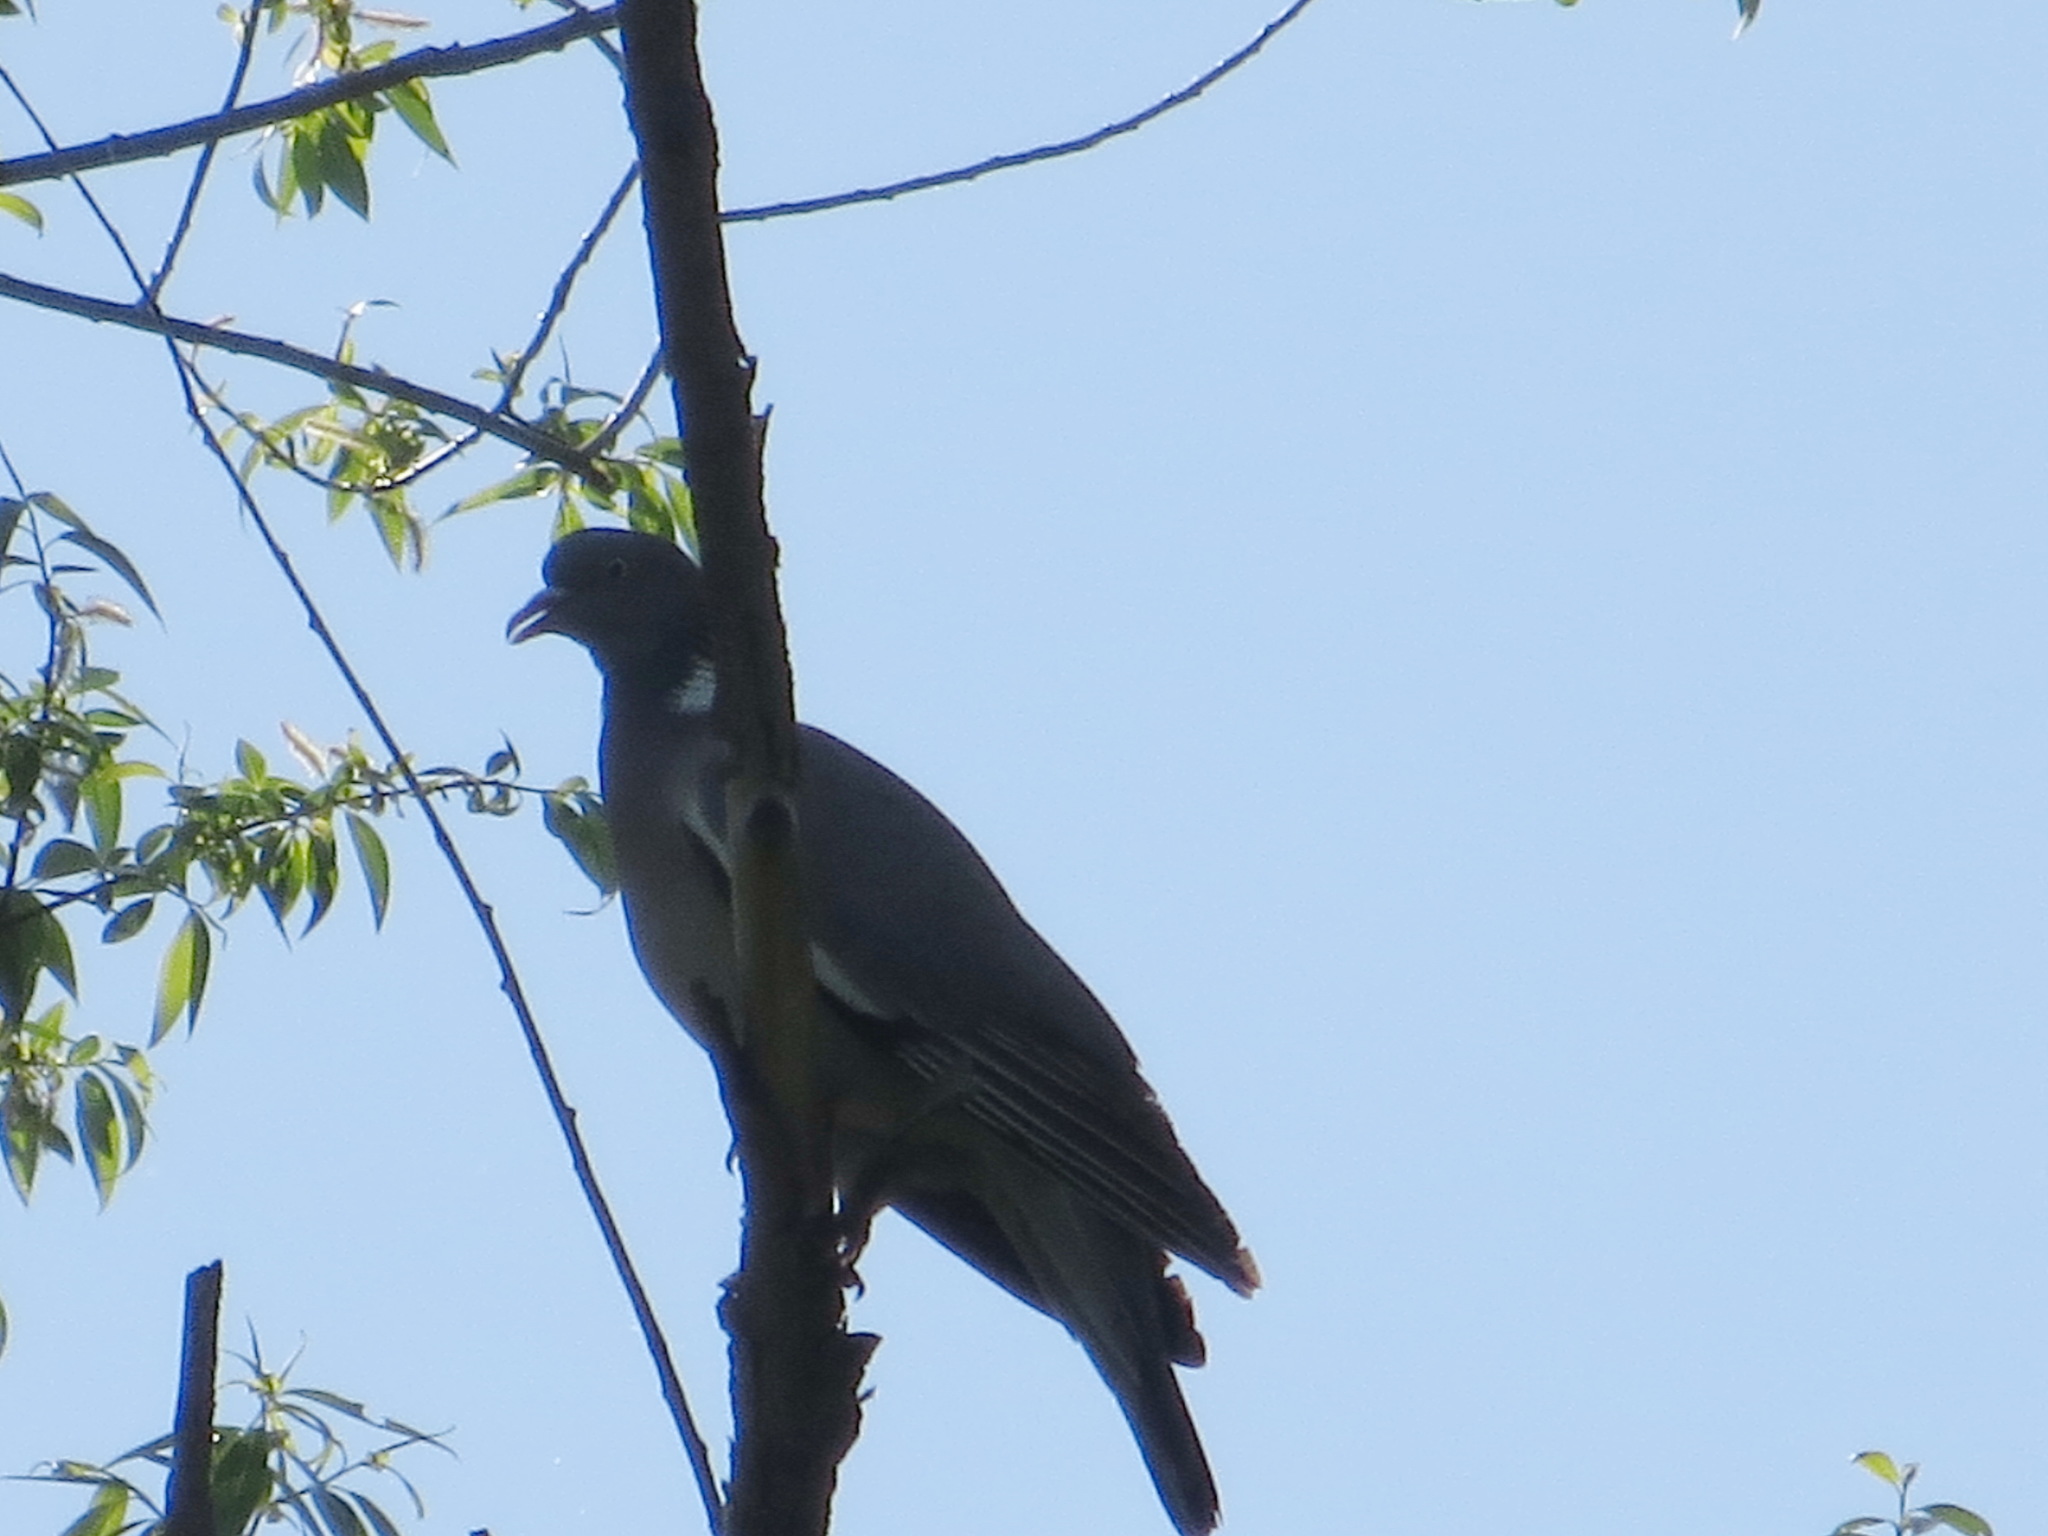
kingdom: Animalia
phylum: Chordata
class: Aves
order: Columbiformes
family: Columbidae
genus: Columba
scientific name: Columba palumbus
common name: Common wood pigeon
